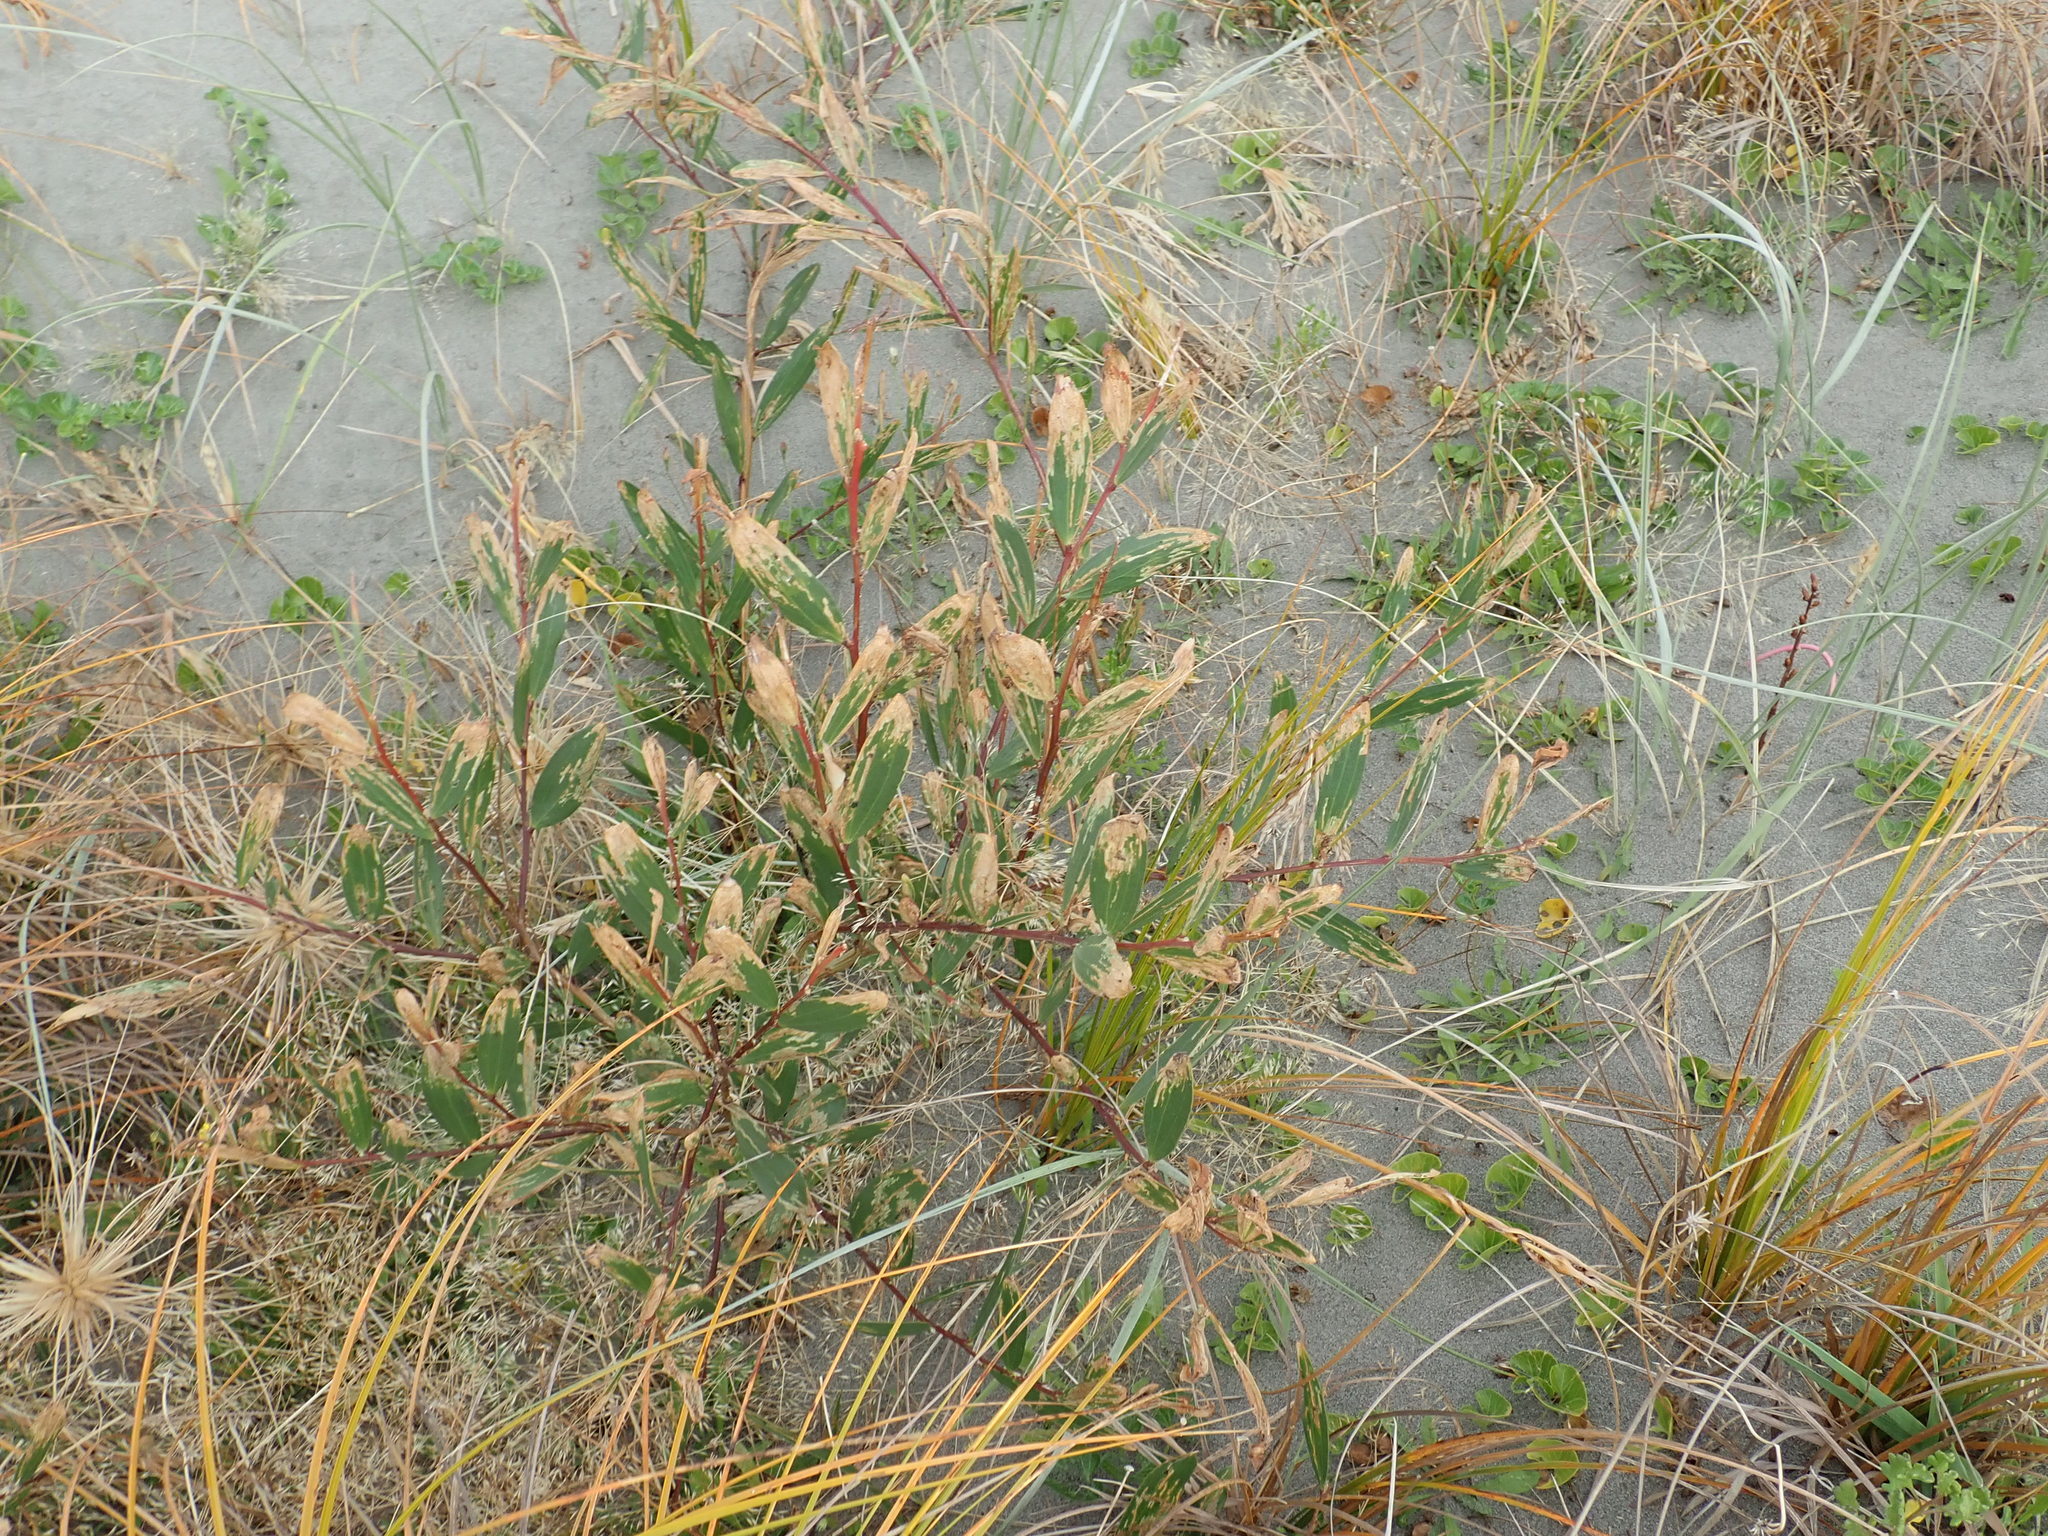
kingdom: Plantae
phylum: Tracheophyta
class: Magnoliopsida
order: Fabales
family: Fabaceae
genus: Acacia
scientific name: Acacia longifolia
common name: Sydney golden wattle
